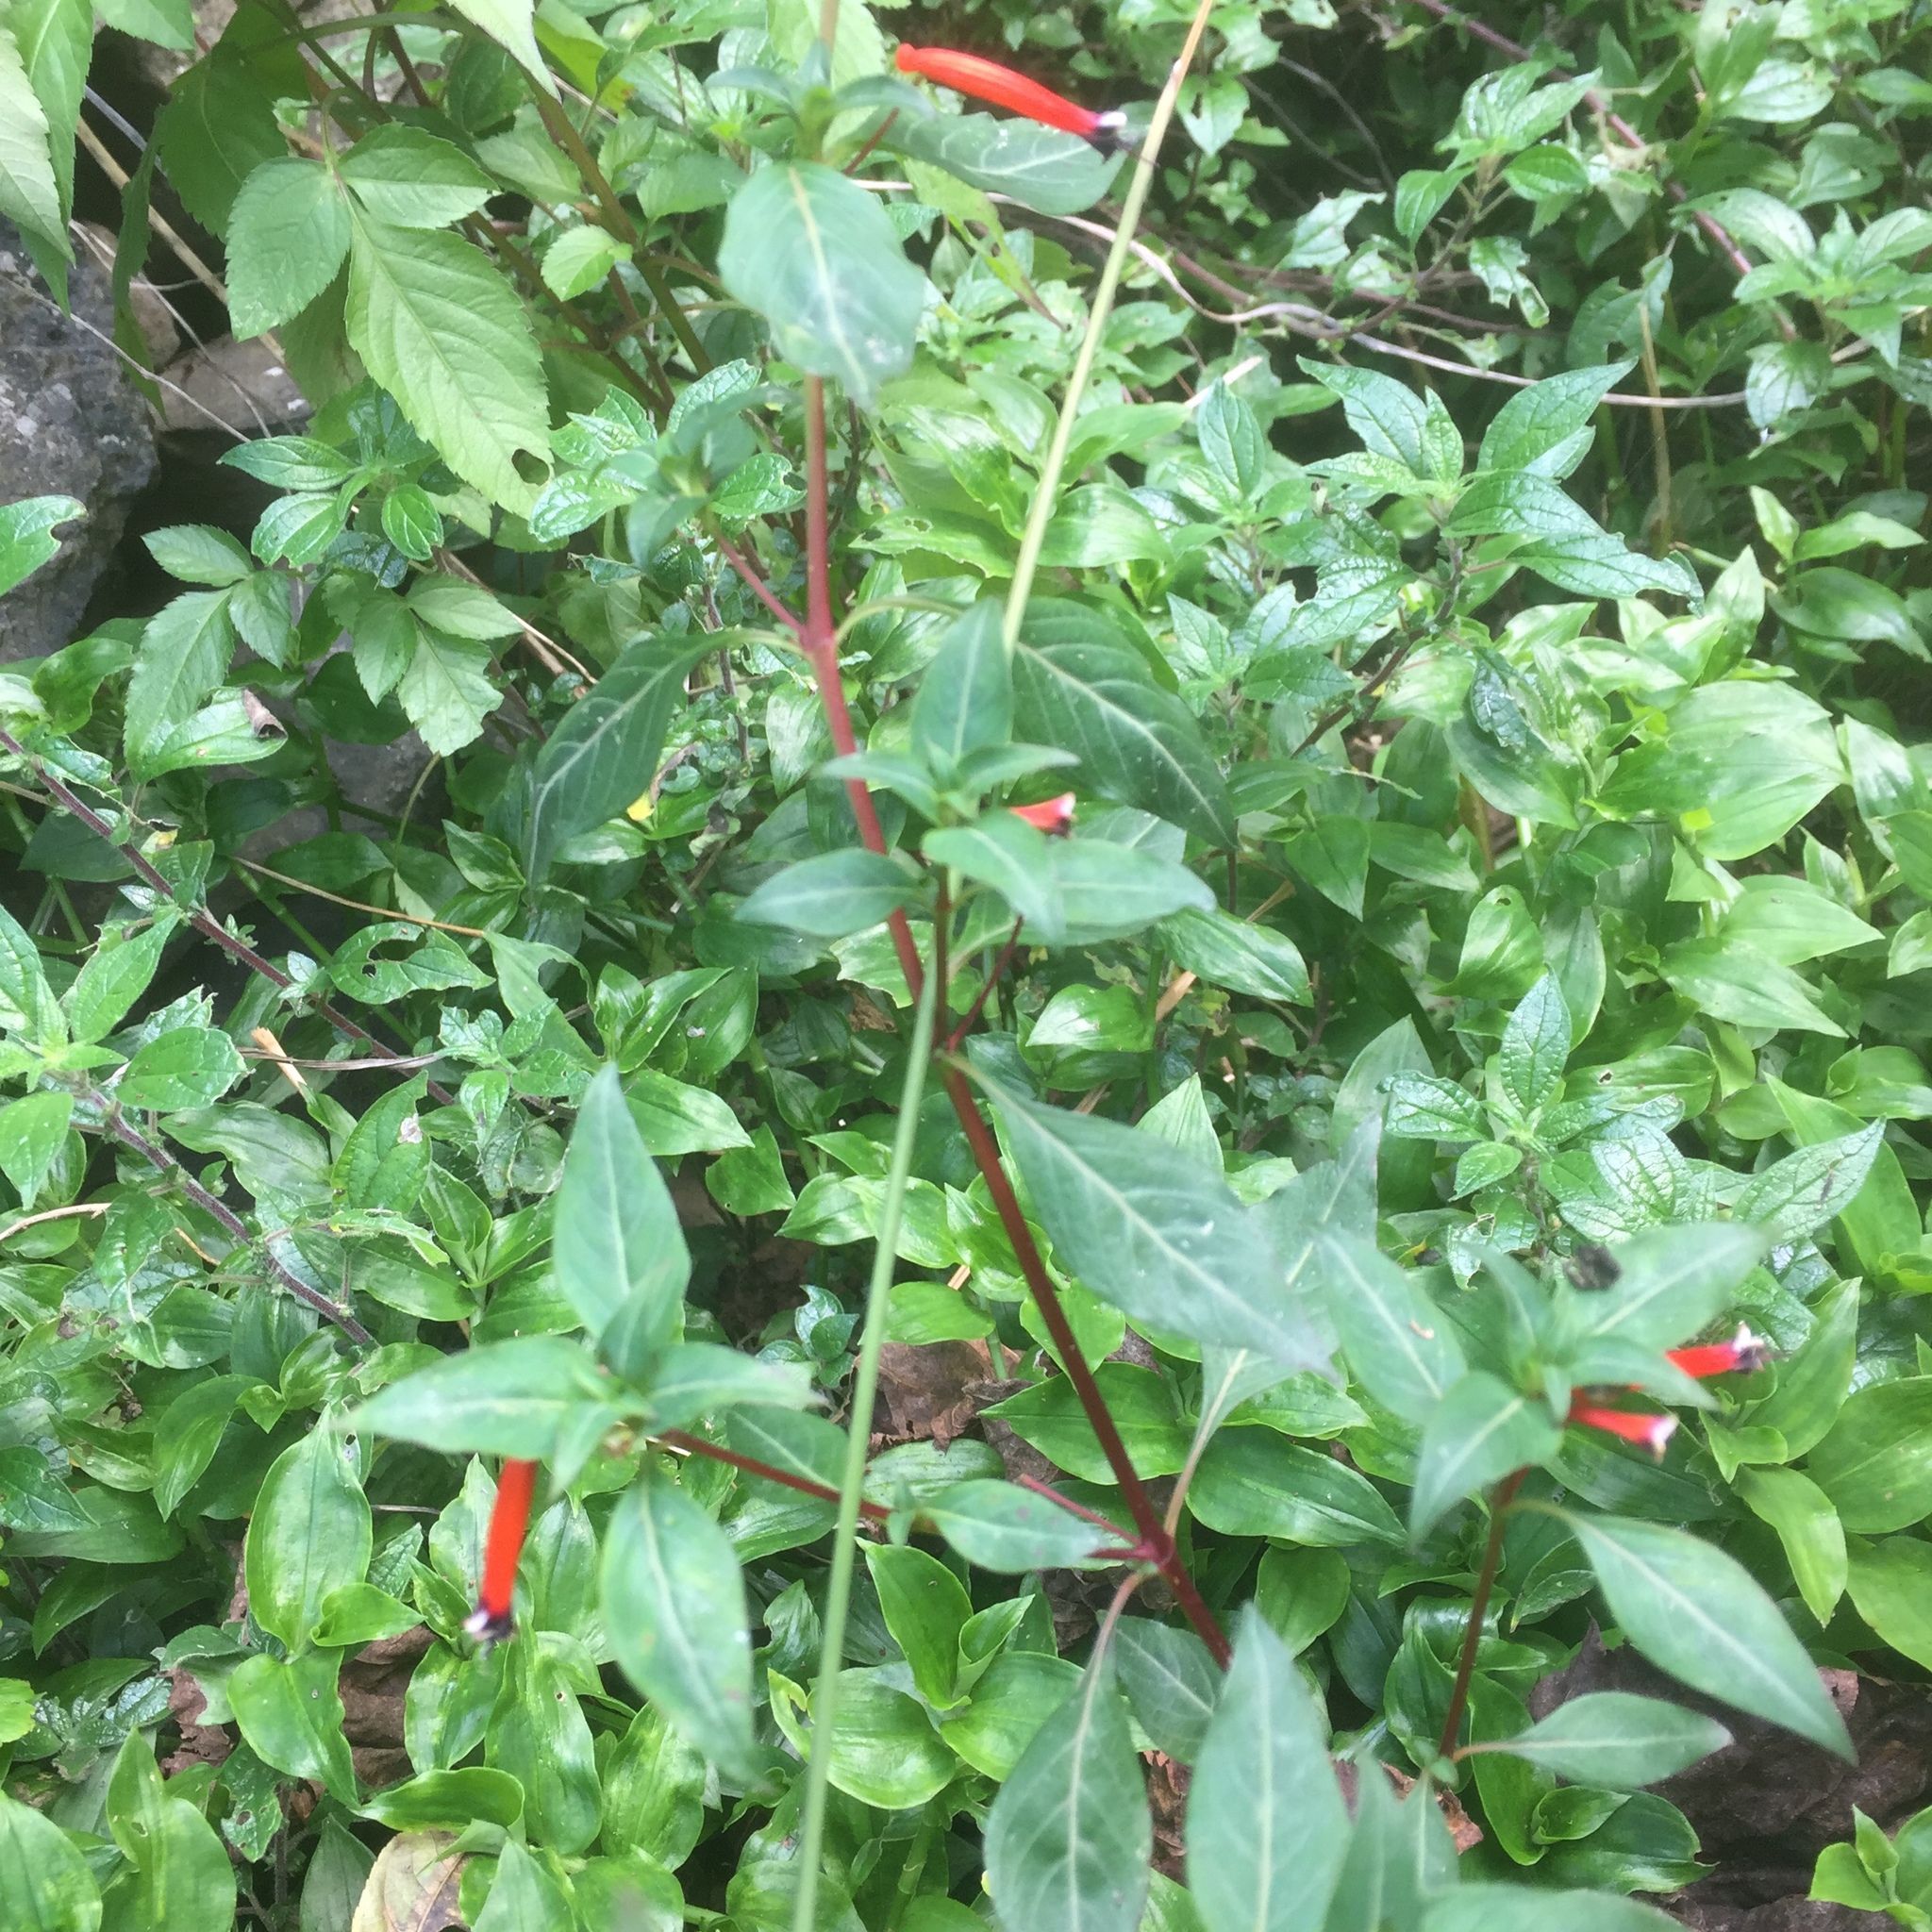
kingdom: Plantae
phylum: Tracheophyta
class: Magnoliopsida
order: Myrtales
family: Lythraceae
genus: Cuphea
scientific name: Cuphea ignea
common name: Cigar flower
